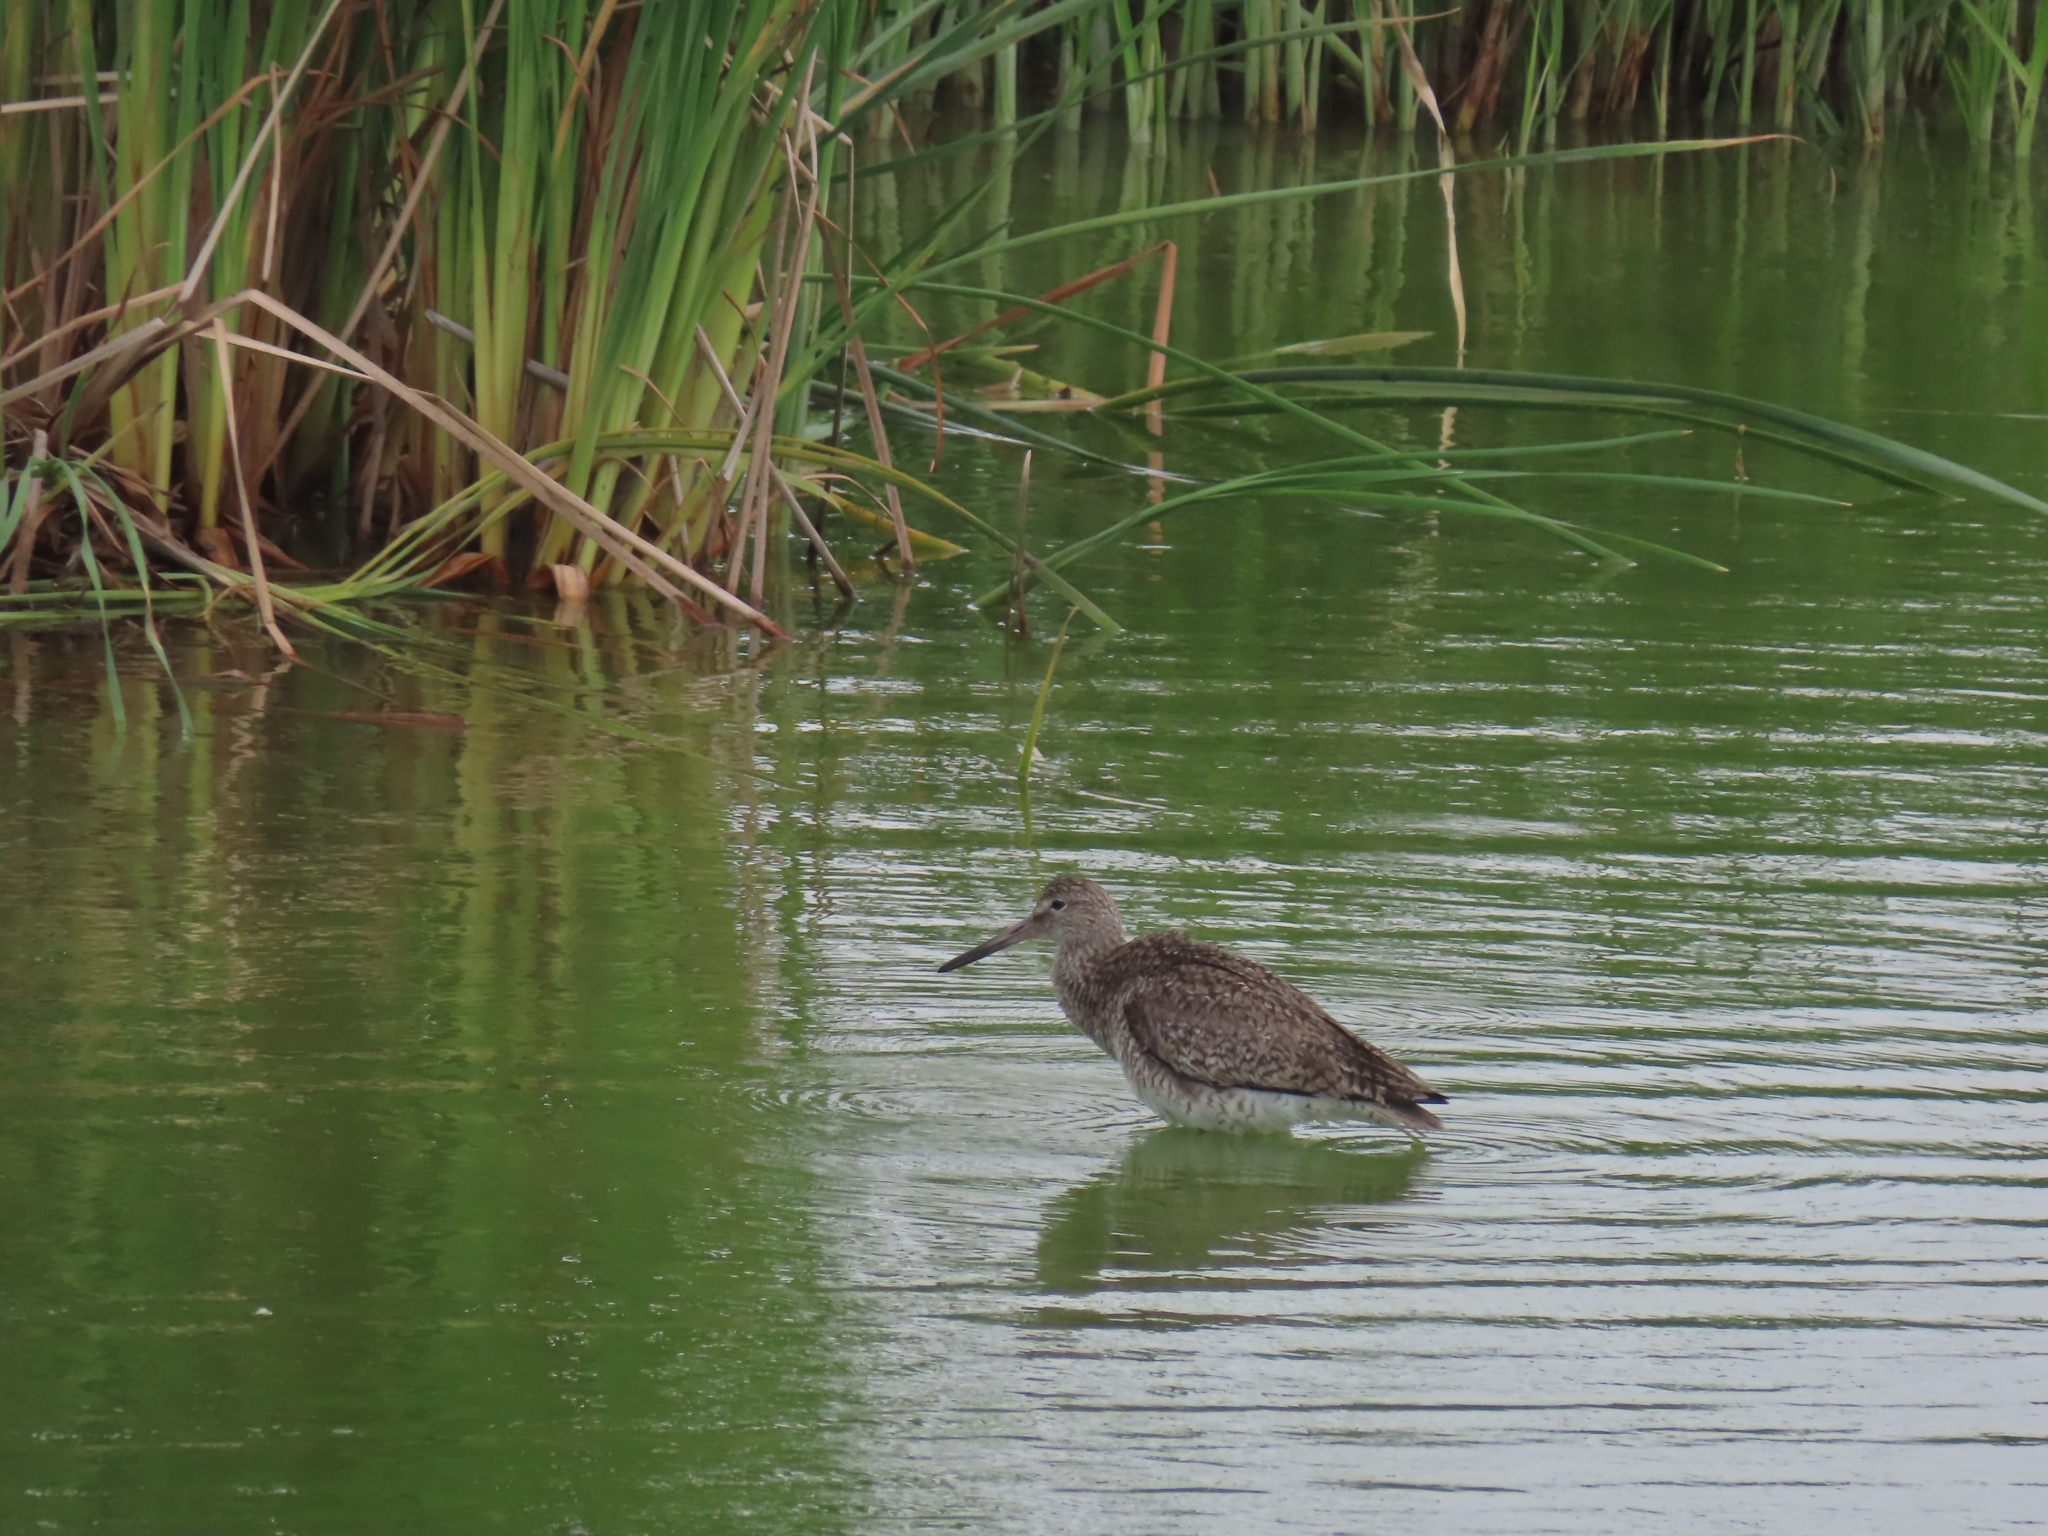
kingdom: Animalia
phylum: Chordata
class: Aves
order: Charadriiformes
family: Scolopacidae
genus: Tringa
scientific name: Tringa semipalmata
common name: Willet
